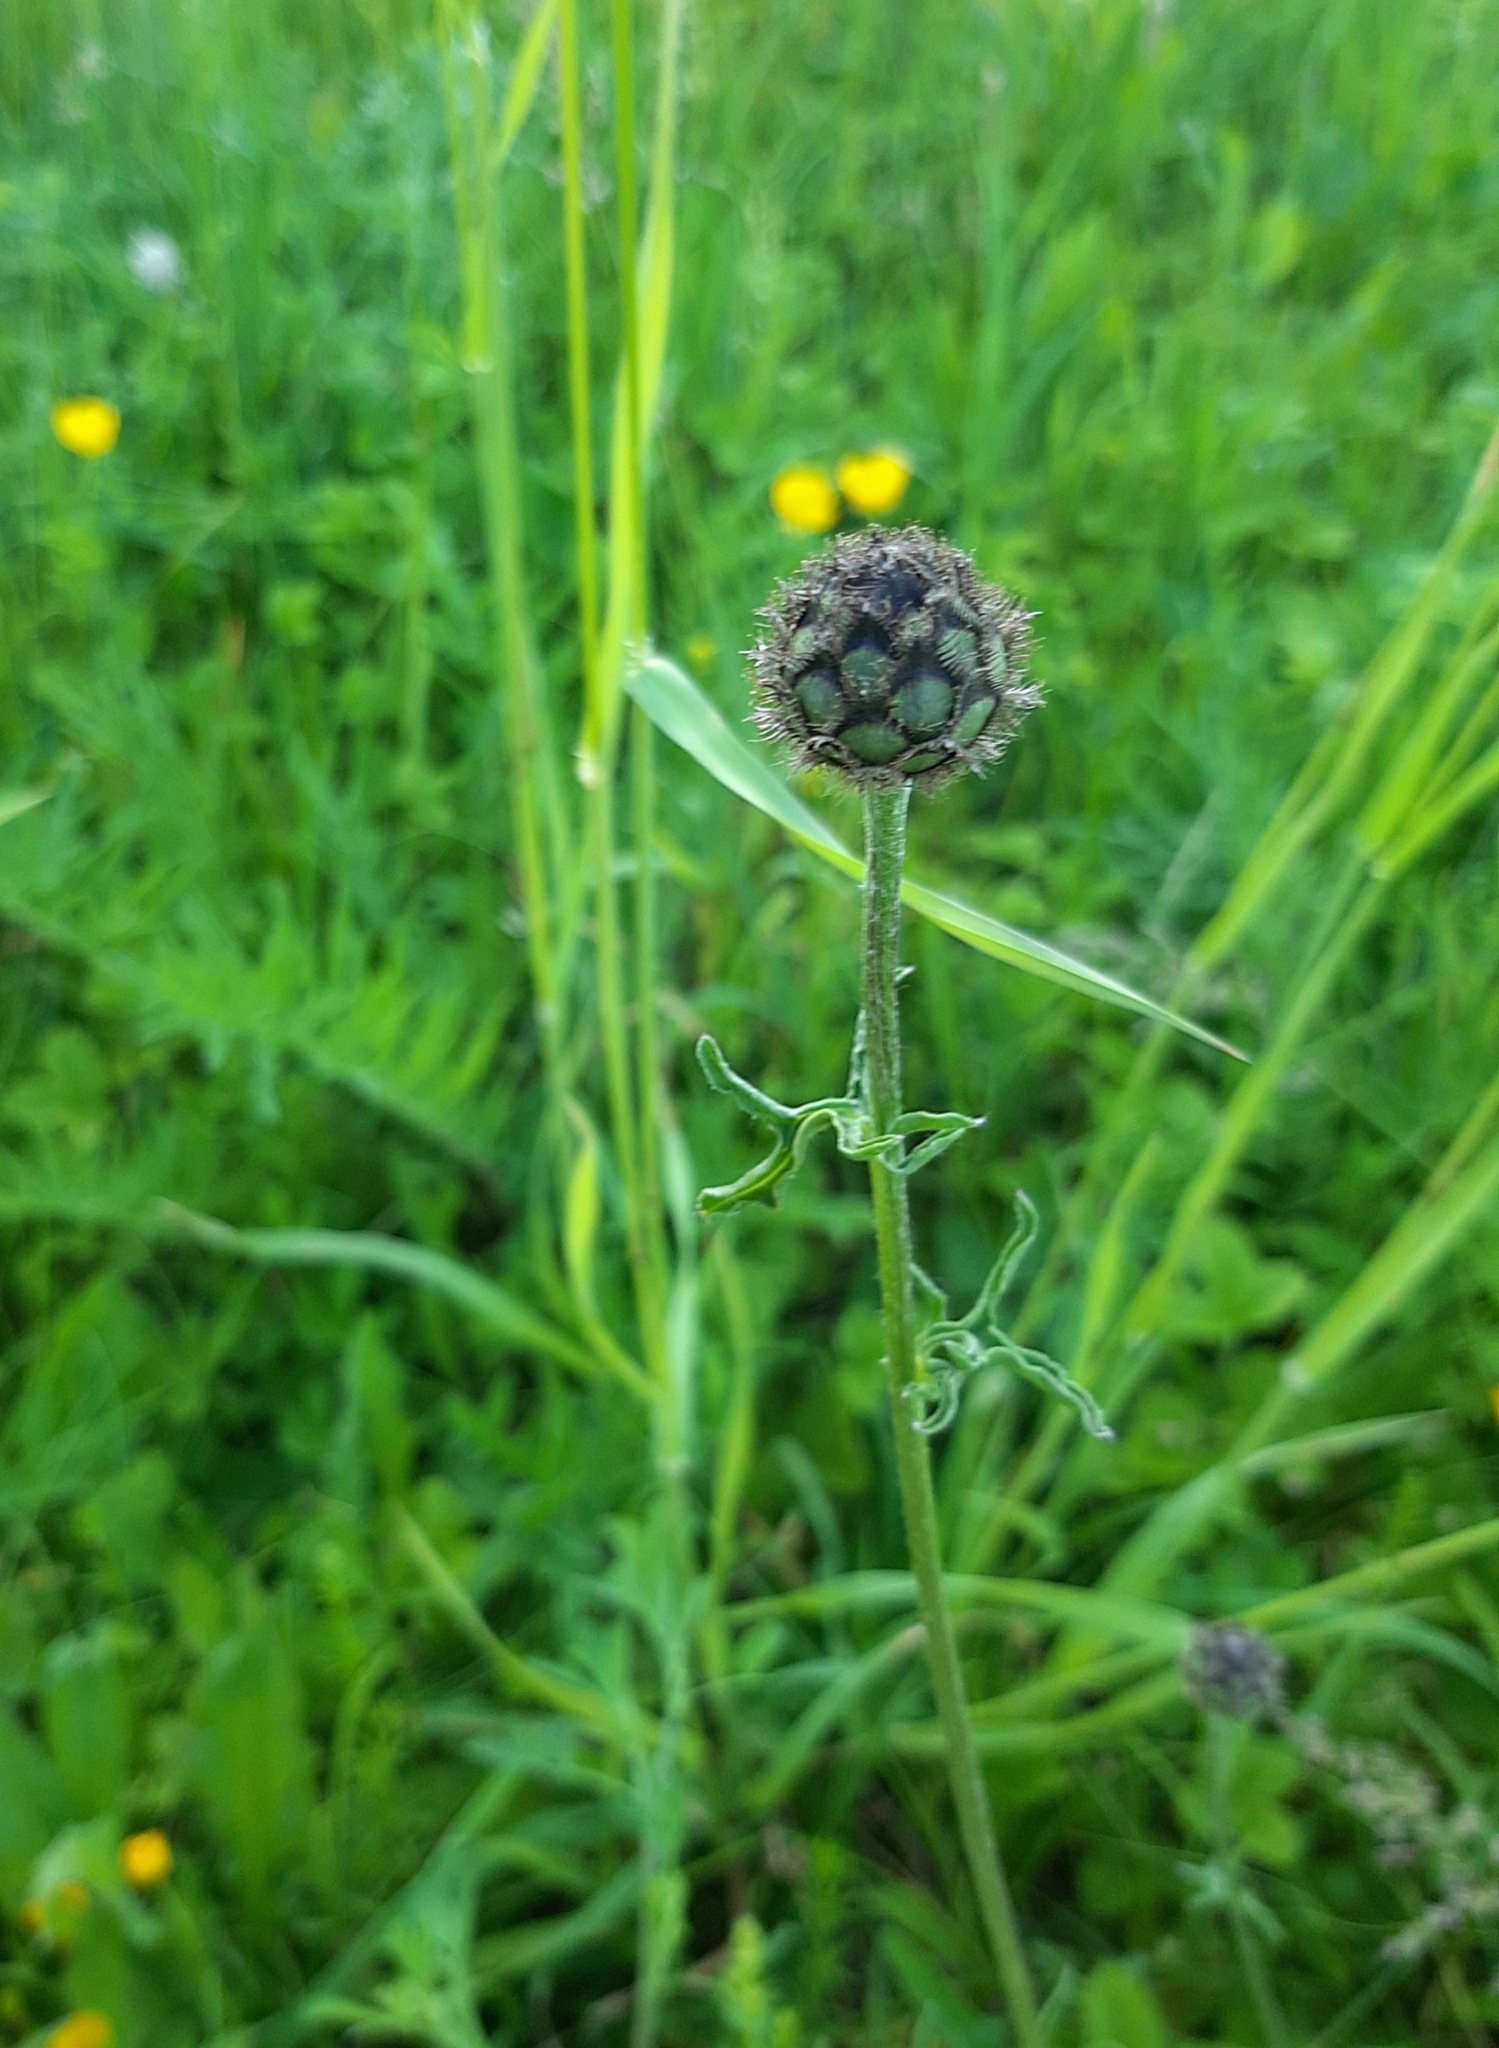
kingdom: Plantae
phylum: Tracheophyta
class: Magnoliopsida
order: Asterales
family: Asteraceae
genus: Centaurea
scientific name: Centaurea scabiosa
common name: Greater knapweed
